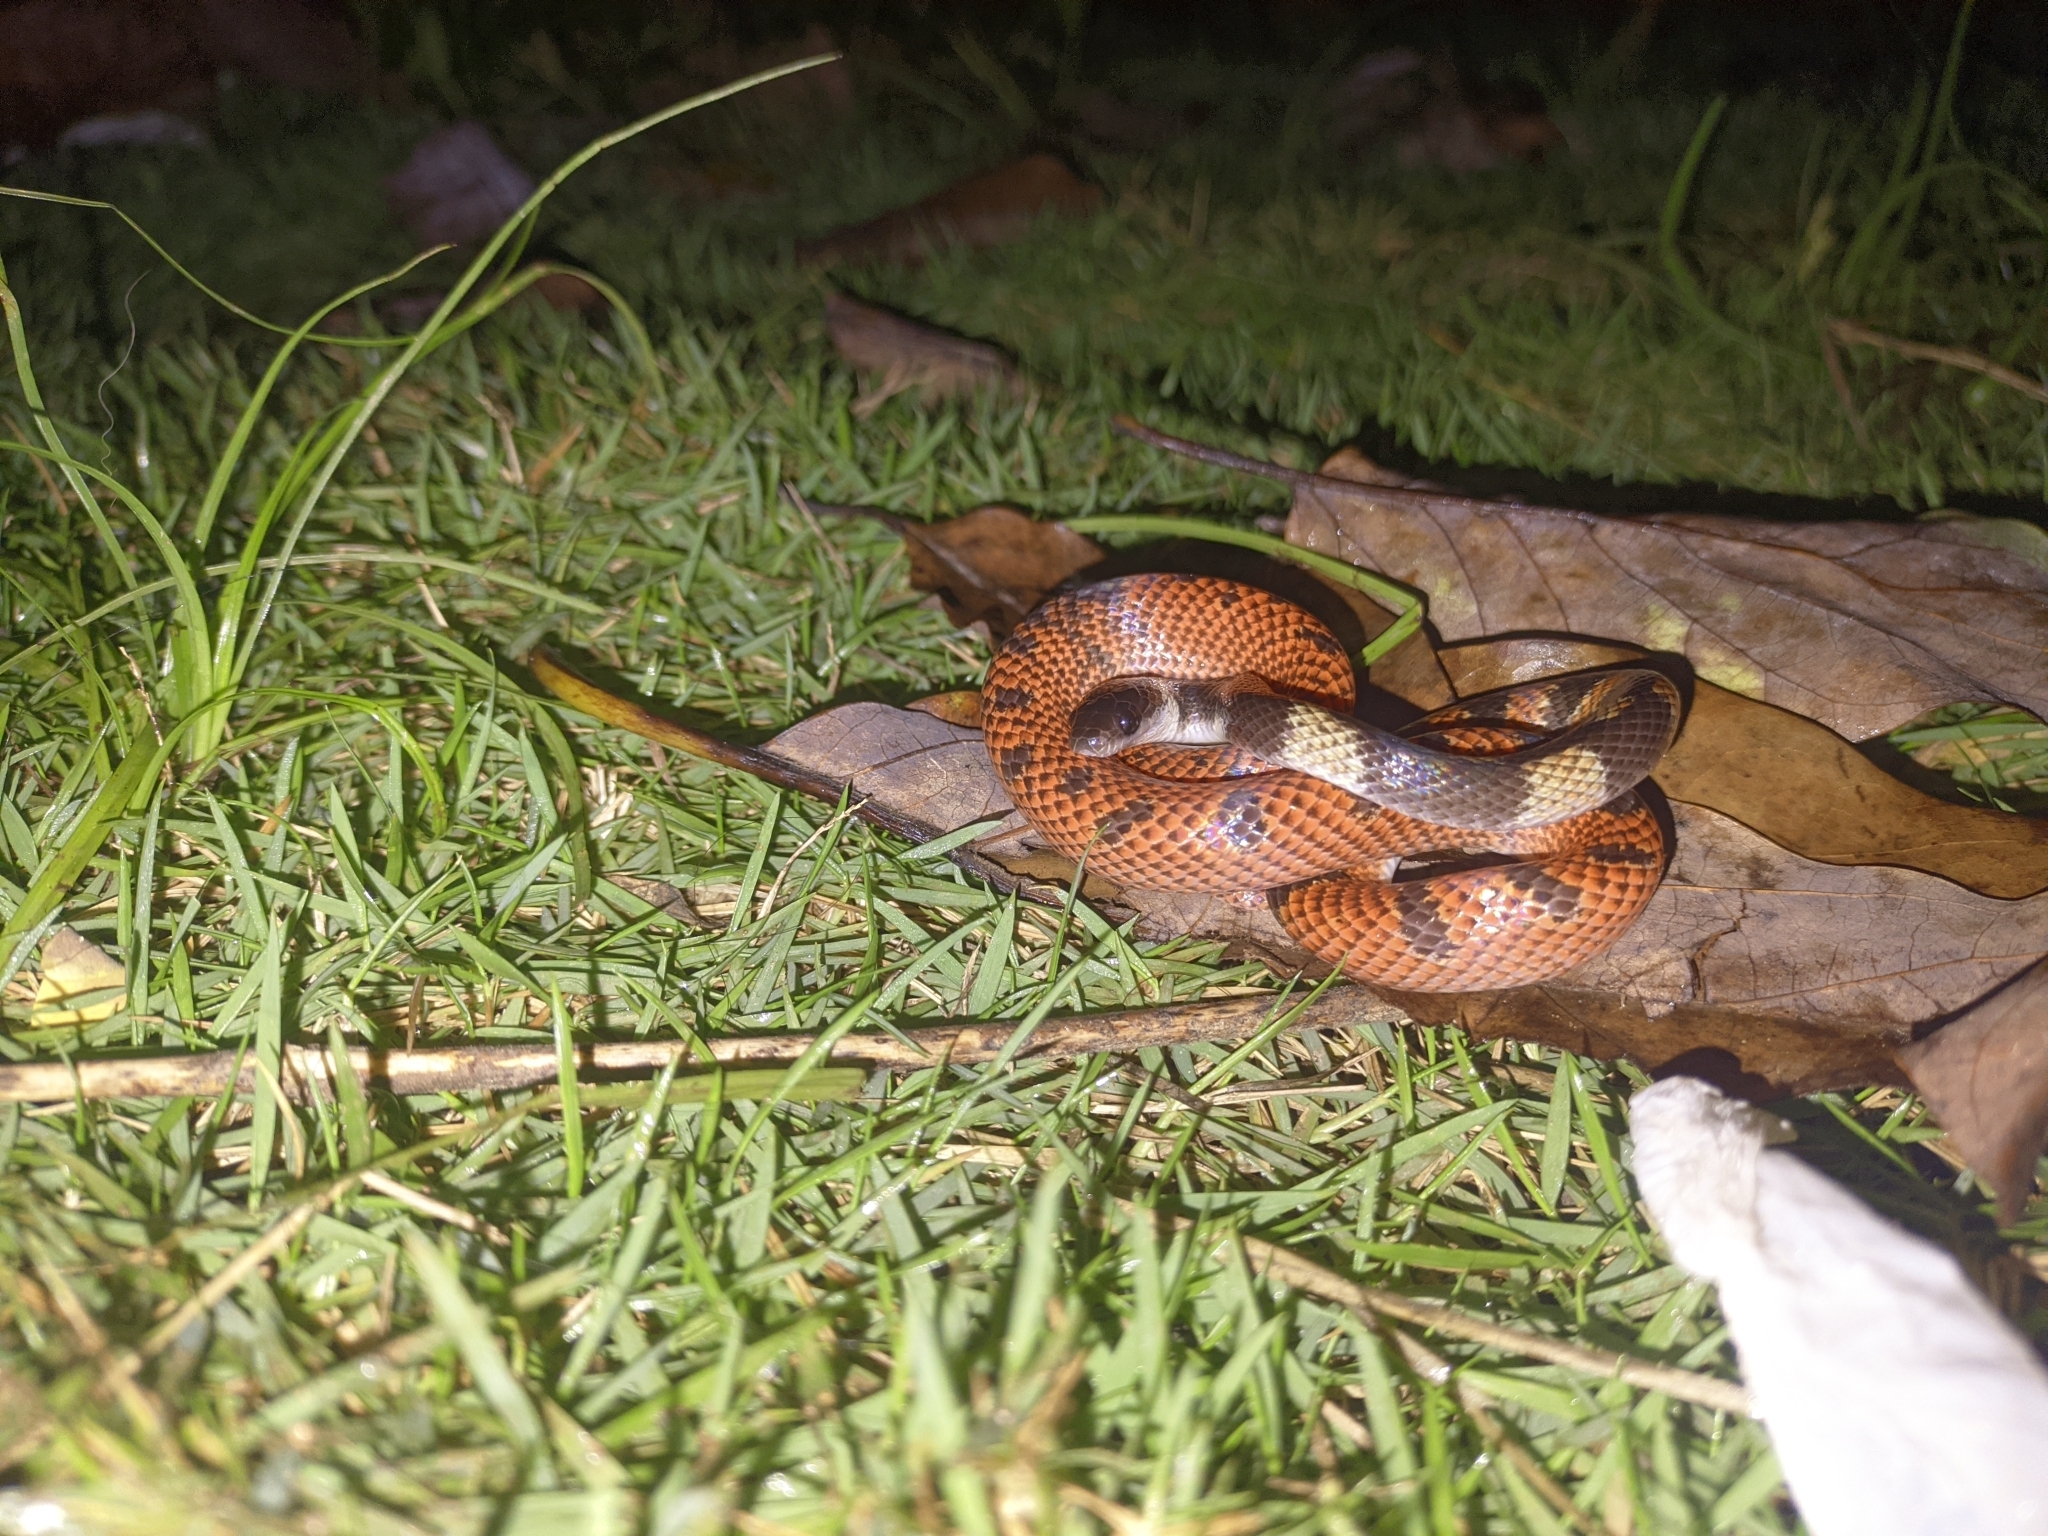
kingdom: Animalia
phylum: Chordata
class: Squamata
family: Colubridae
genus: Oxyrhopus
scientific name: Oxyrhopus petolarius
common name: Forest flame snake
